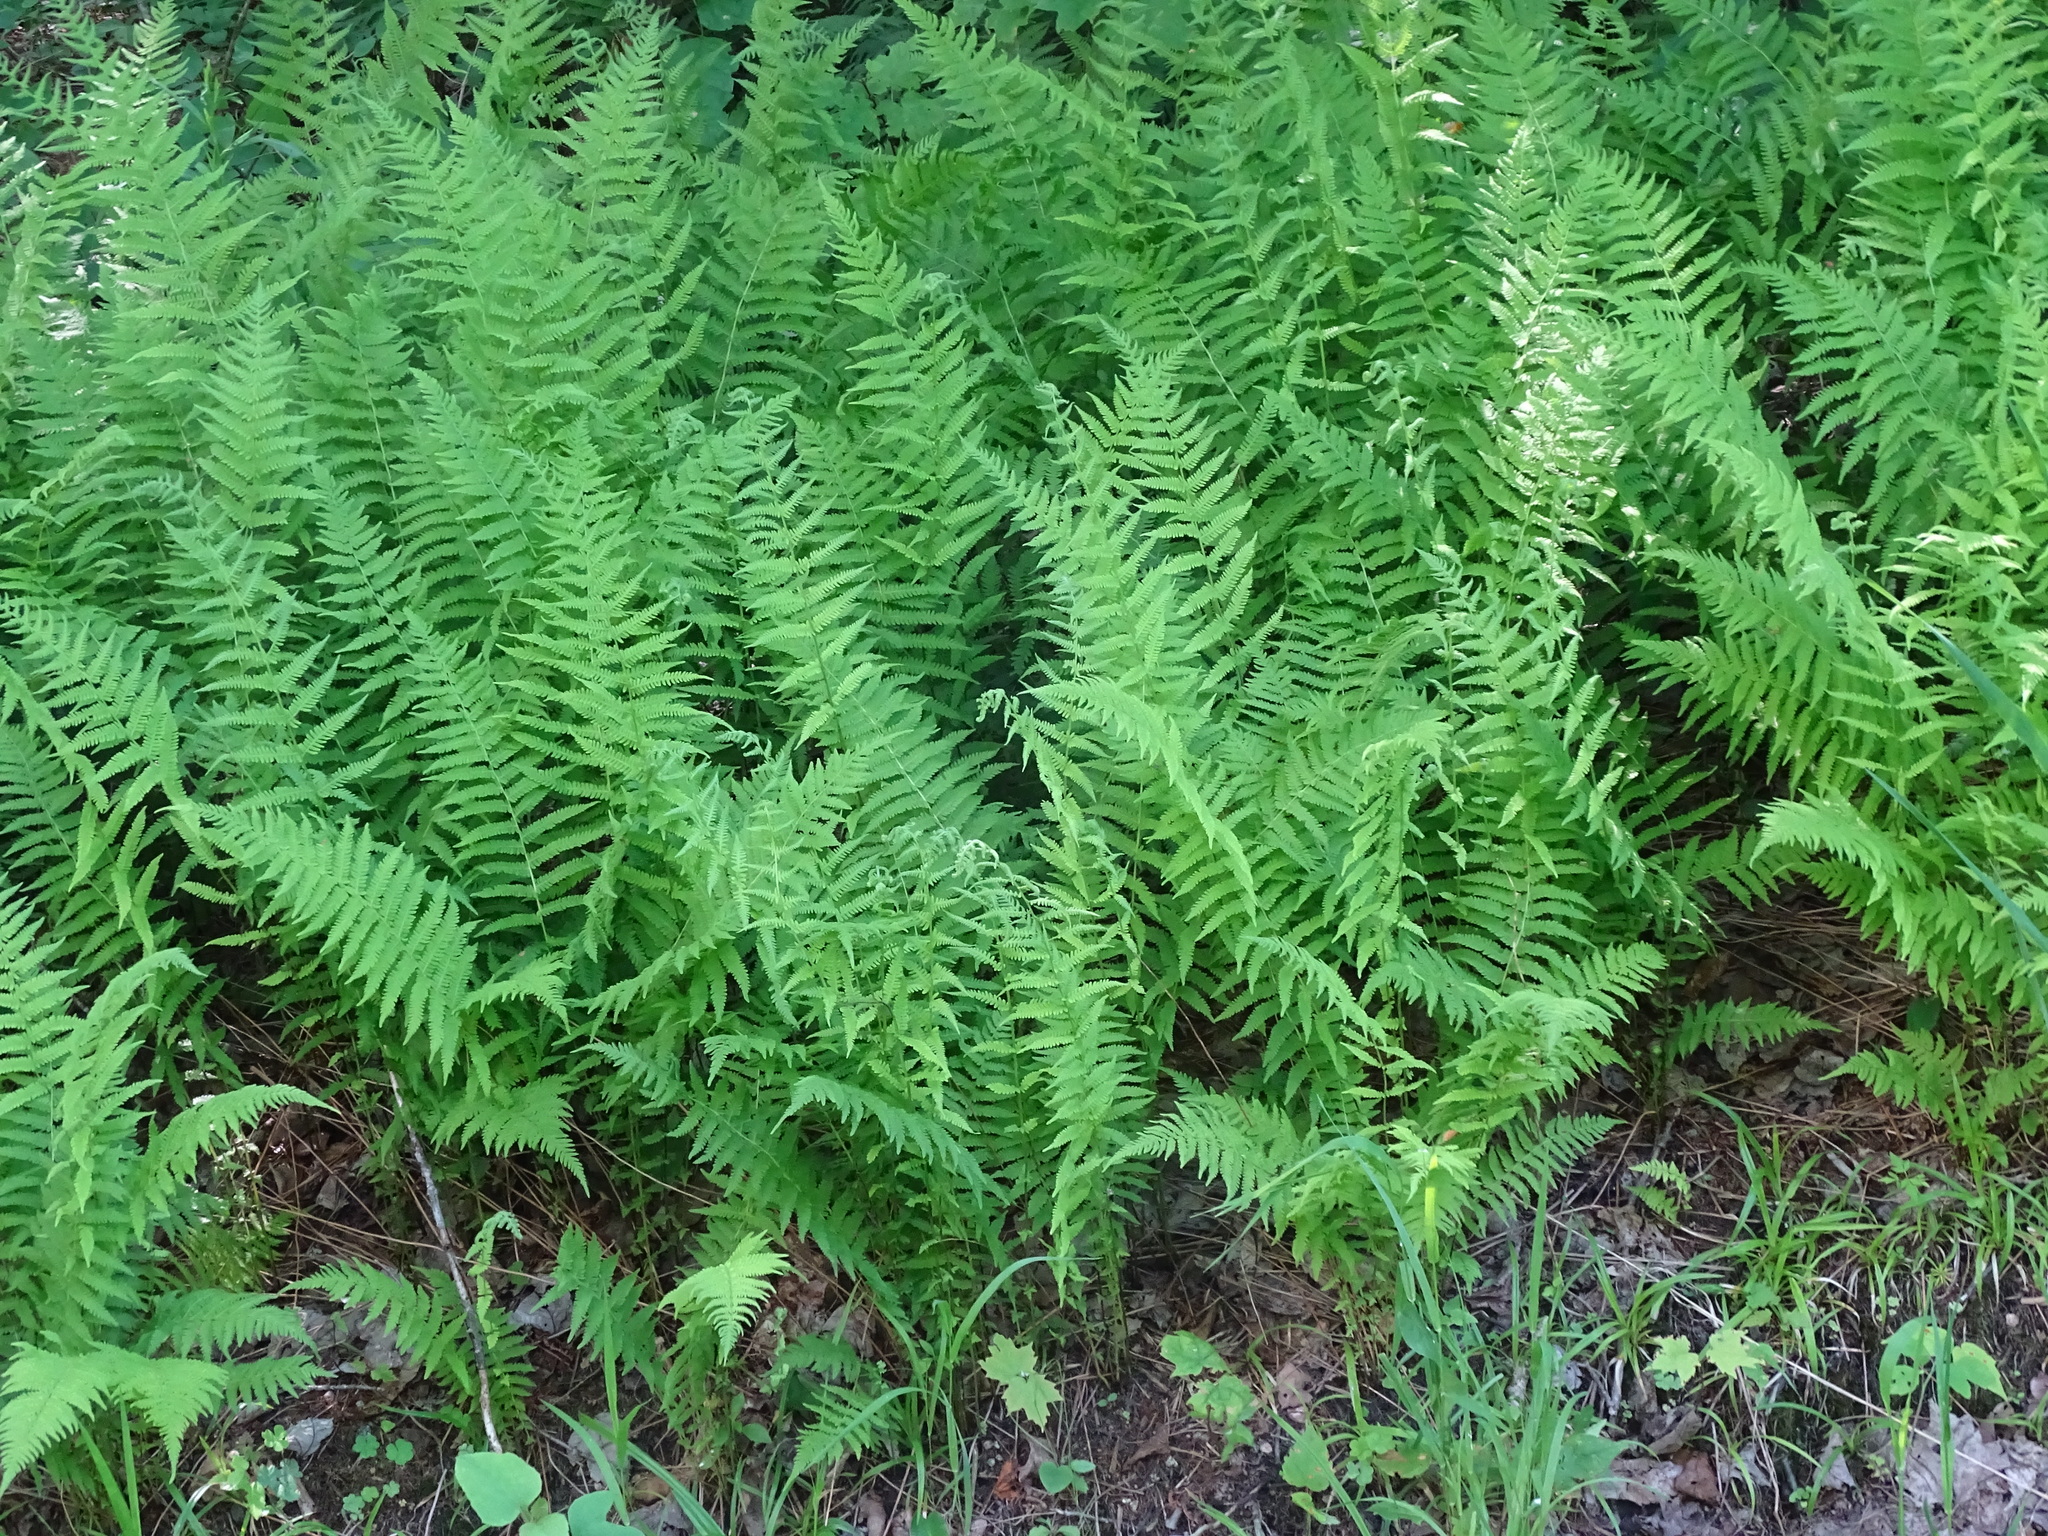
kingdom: Plantae
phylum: Tracheophyta
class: Polypodiopsida
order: Polypodiales
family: Thelypteridaceae
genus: Amauropelta
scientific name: Amauropelta noveboracensis
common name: New york fern
